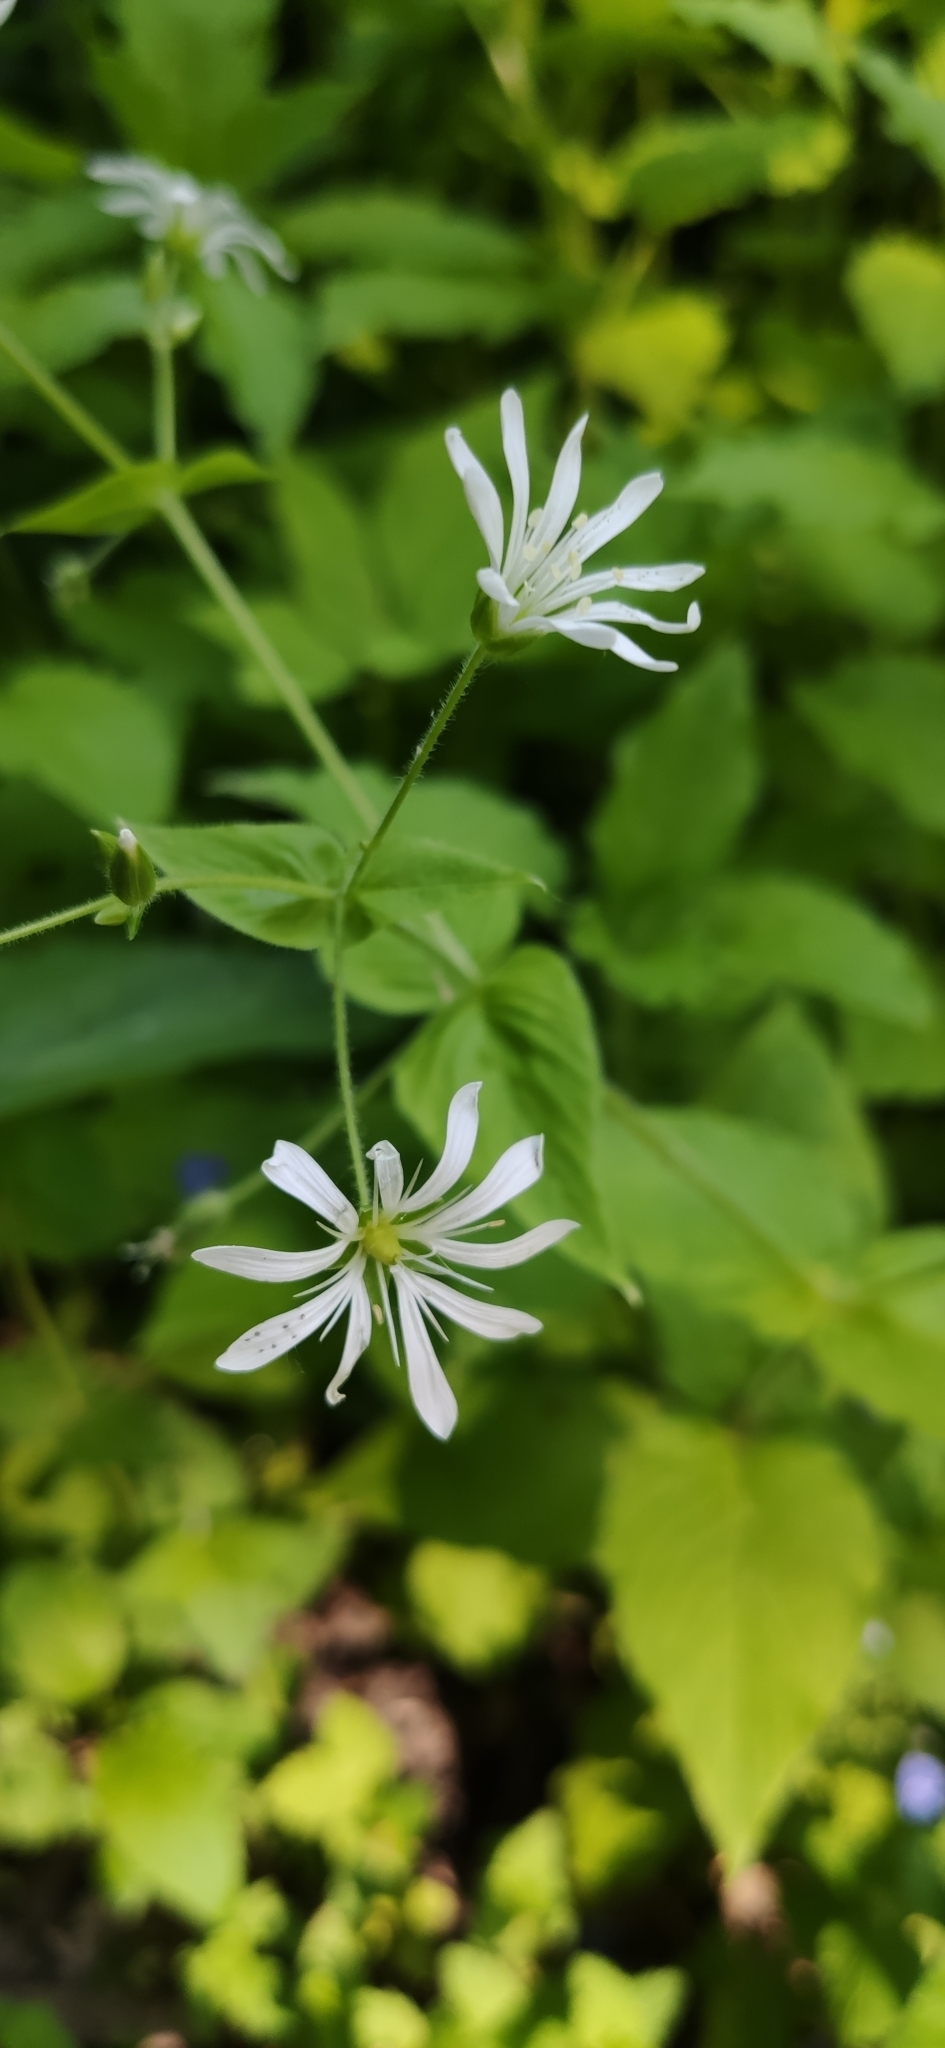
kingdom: Plantae
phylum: Tracheophyta
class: Magnoliopsida
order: Caryophyllales
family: Caryophyllaceae
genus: Stellaria
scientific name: Stellaria nemorum
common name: Wood stitchwort
